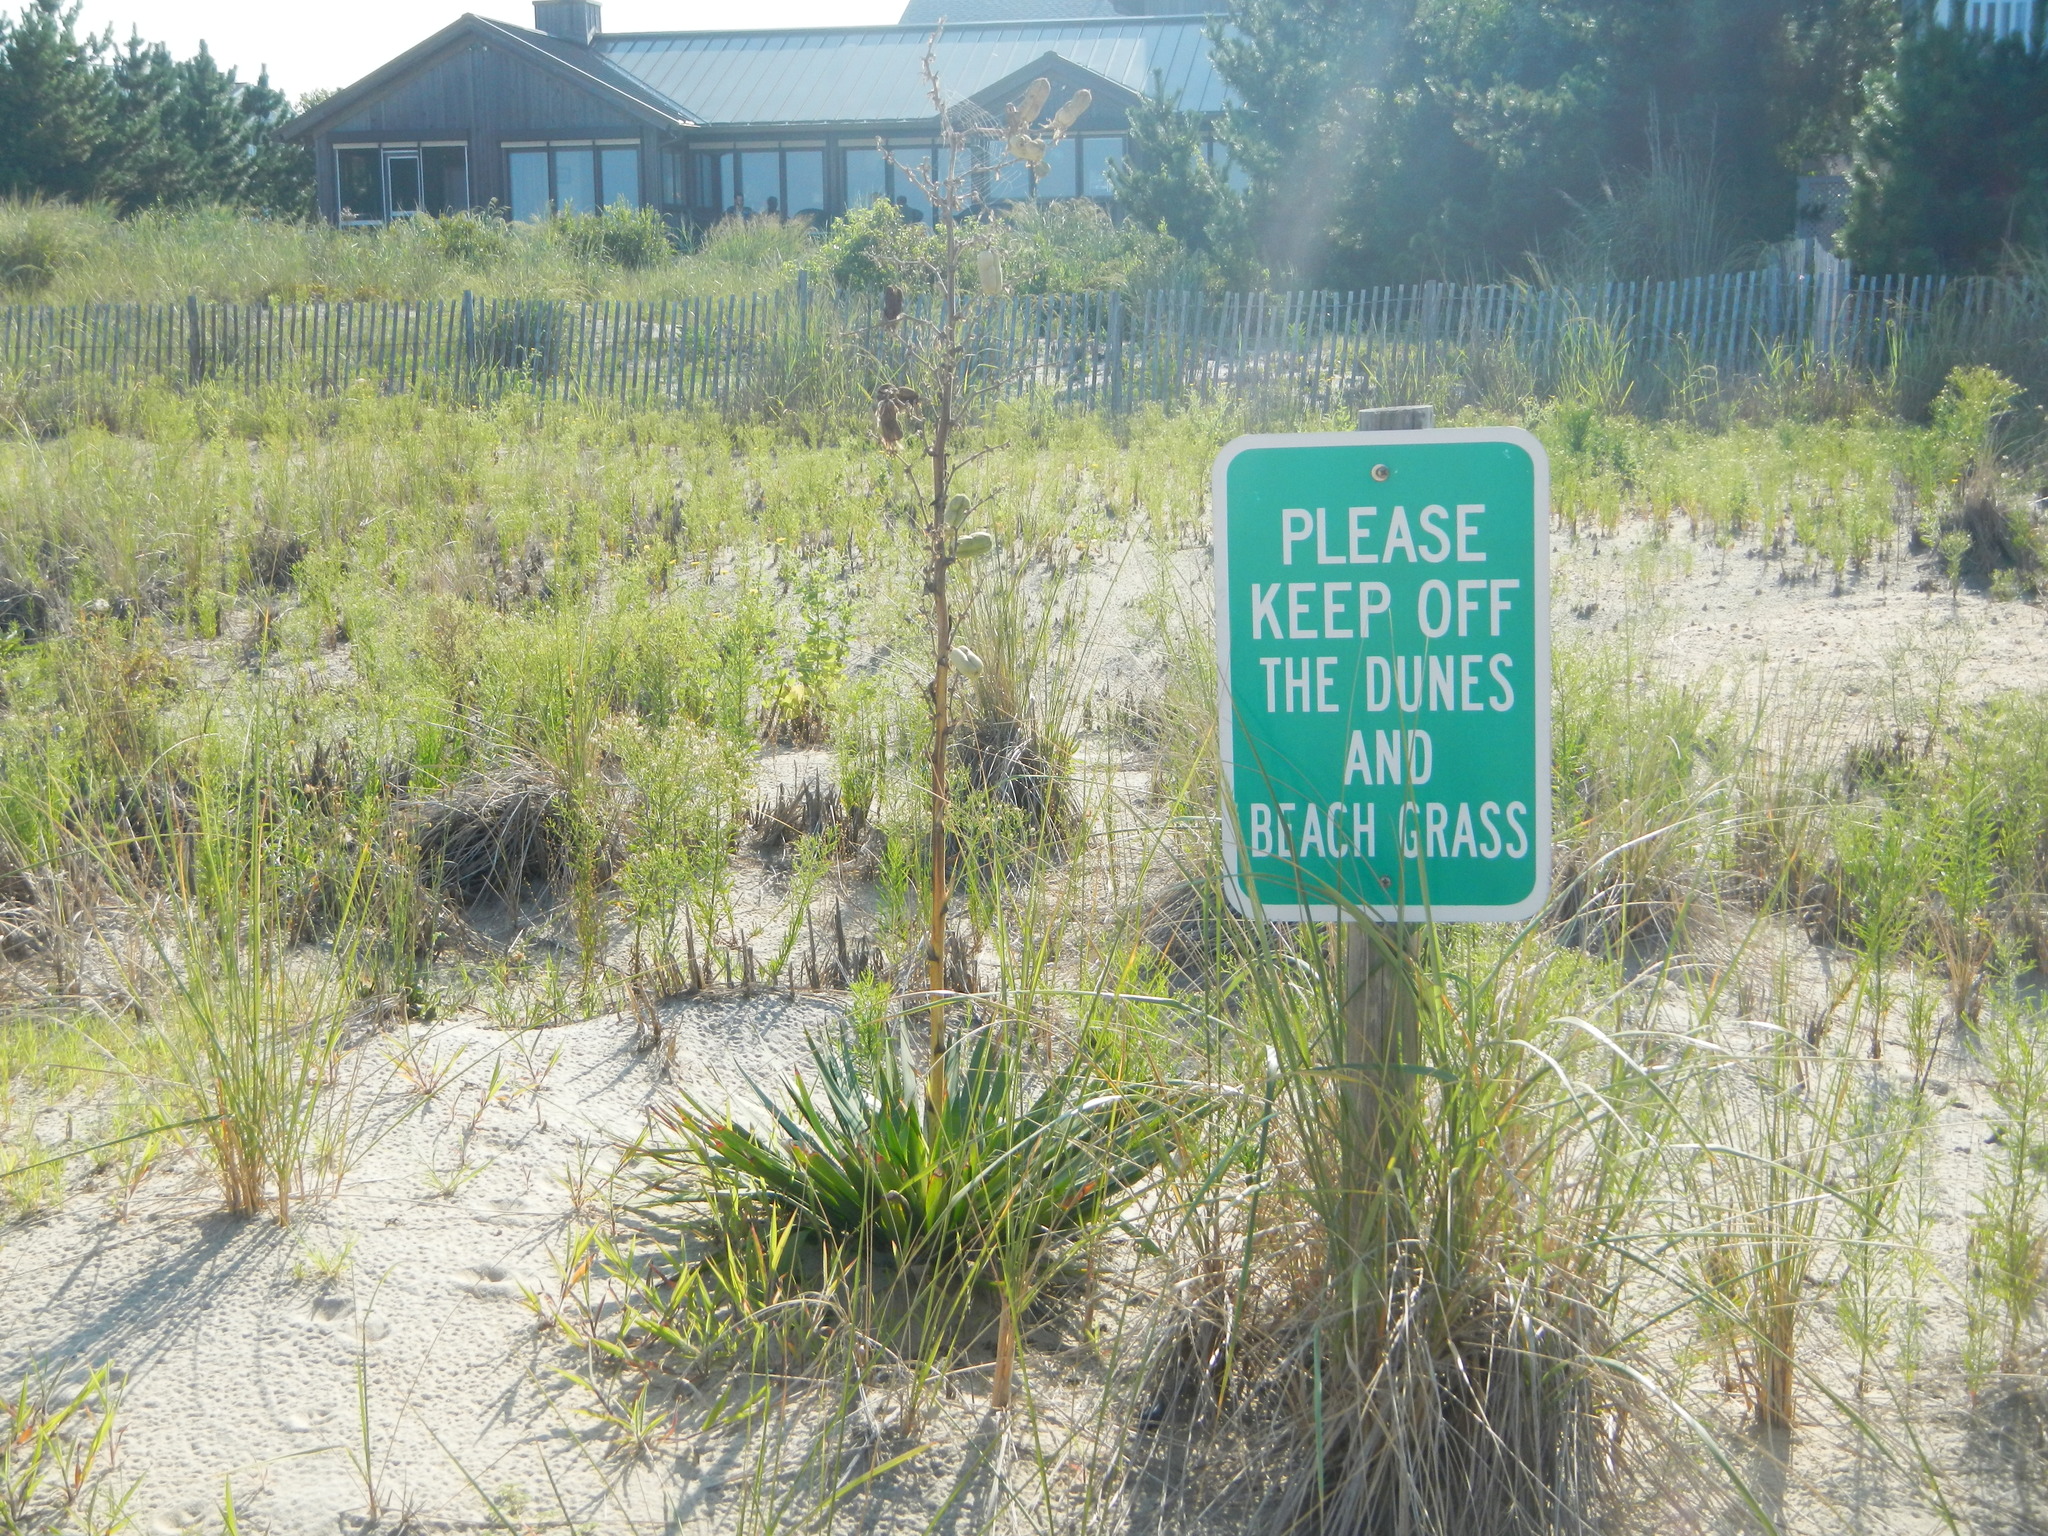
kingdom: Plantae
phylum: Tracheophyta
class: Liliopsida
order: Asparagales
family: Asparagaceae
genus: Yucca
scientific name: Yucca filamentosa
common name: Adam's-needle
